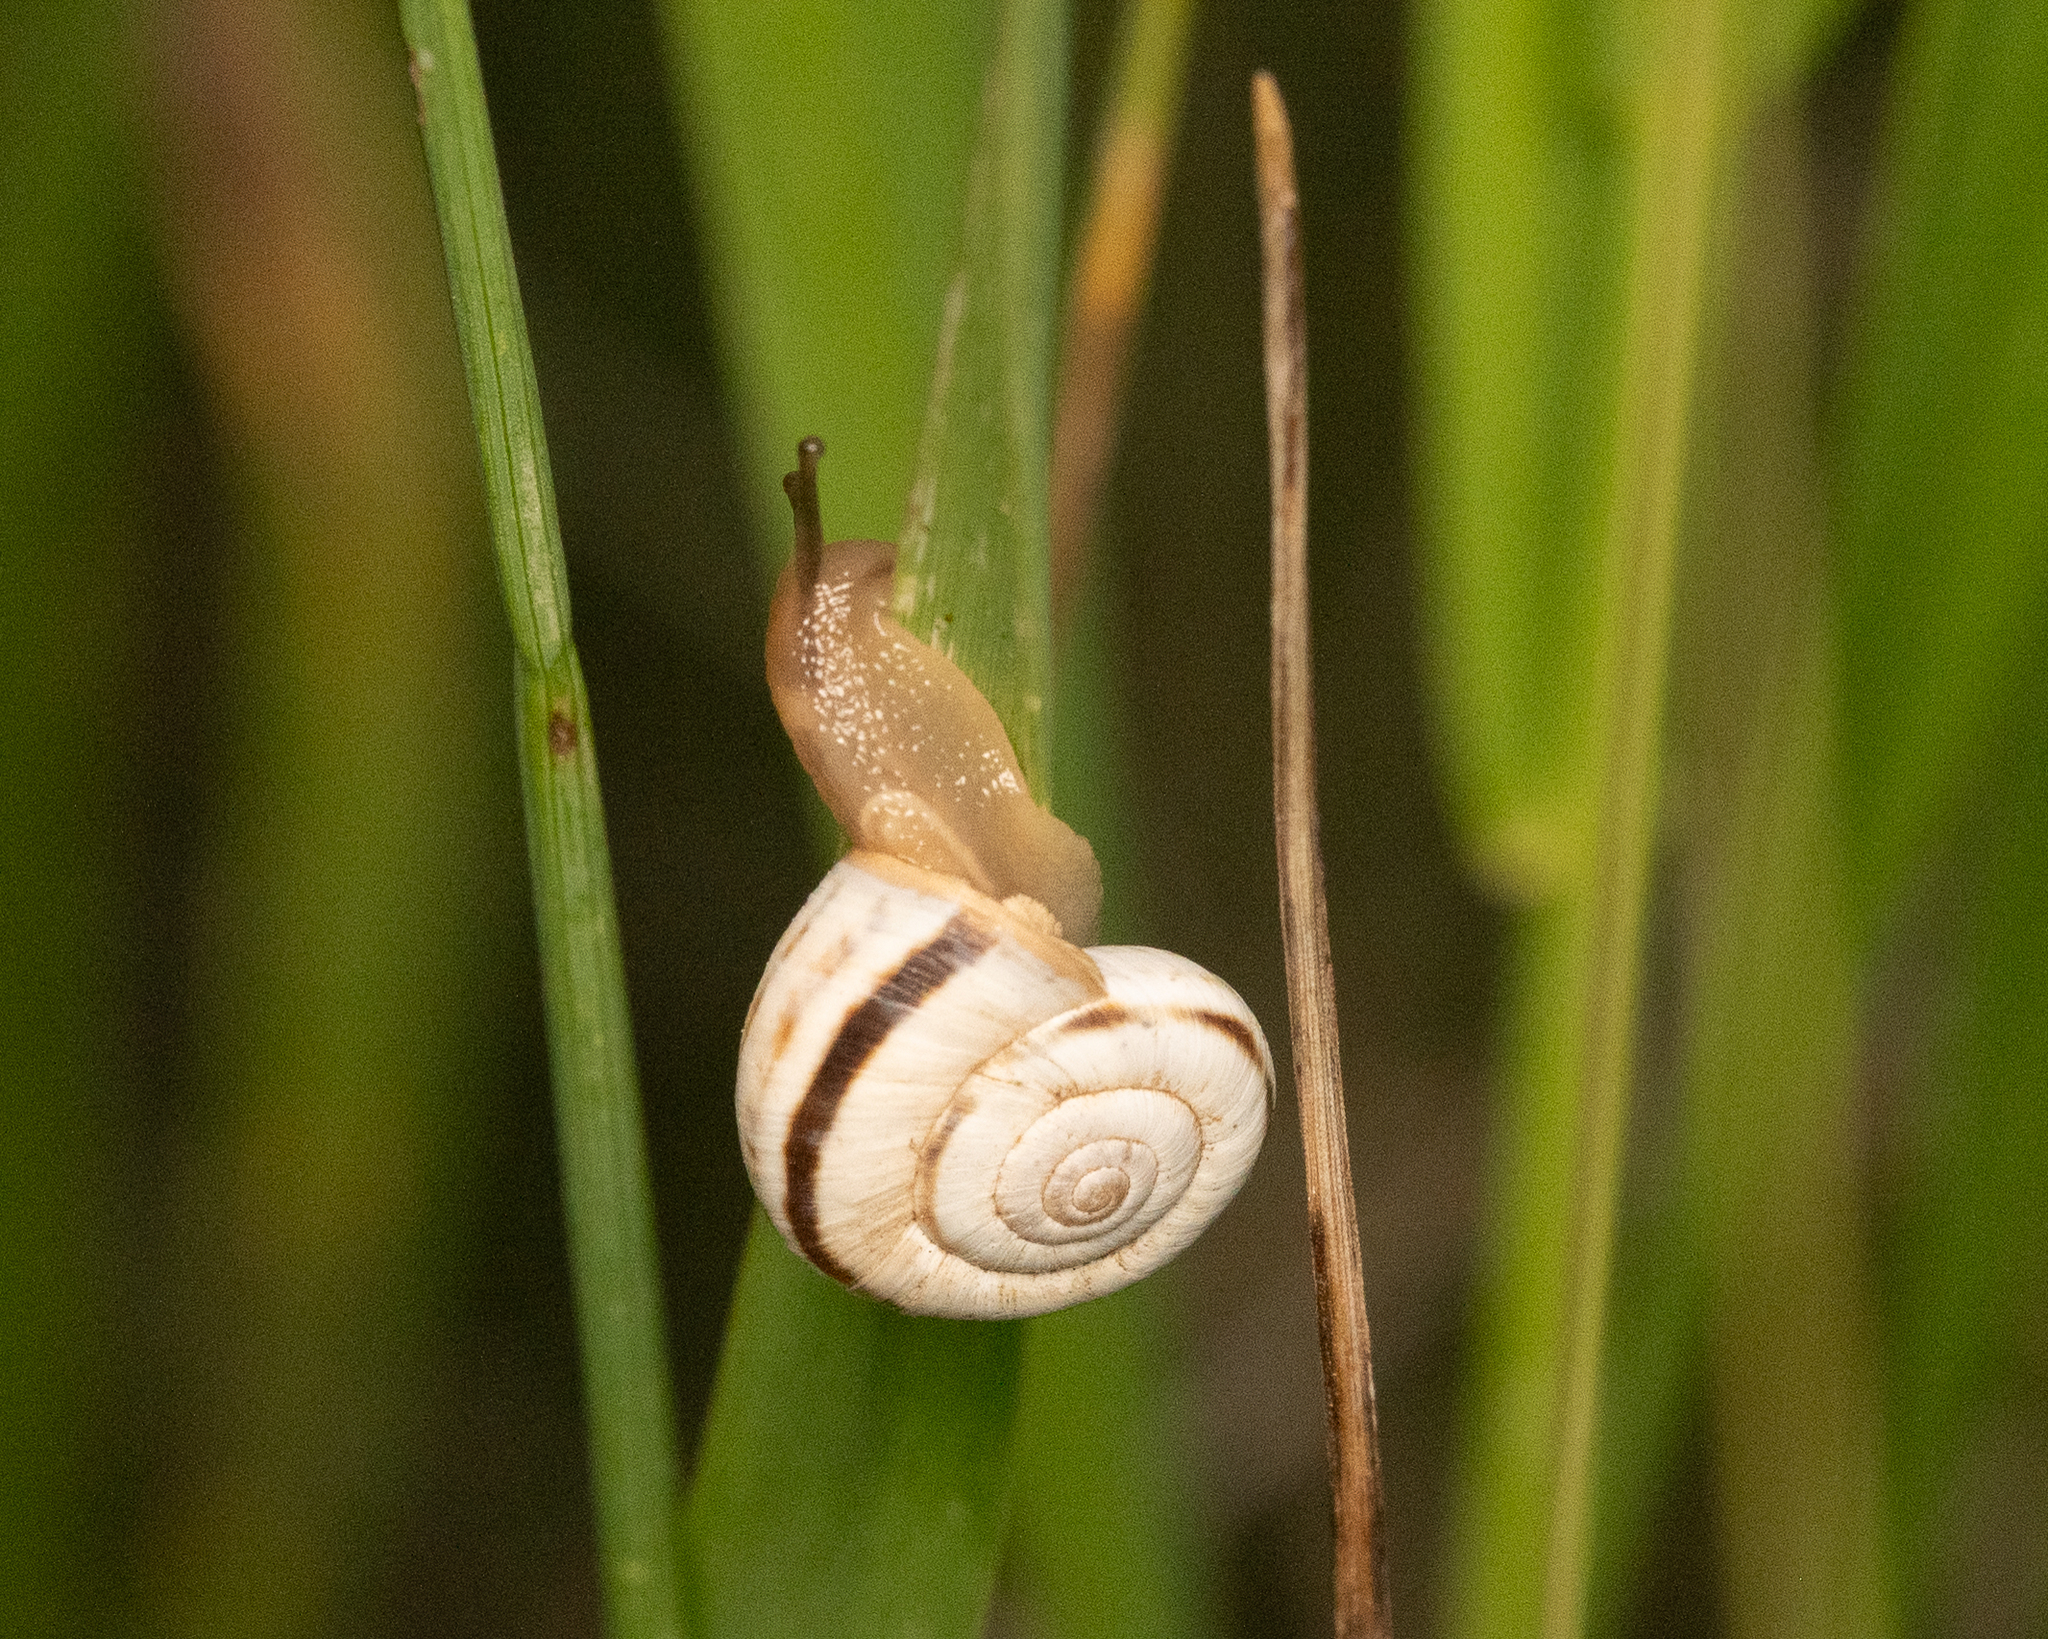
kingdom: Animalia
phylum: Mollusca
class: Gastropoda
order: Stylommatophora
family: Geomitridae
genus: Xerolenta
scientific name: Xerolenta obvia
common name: White heath snail
